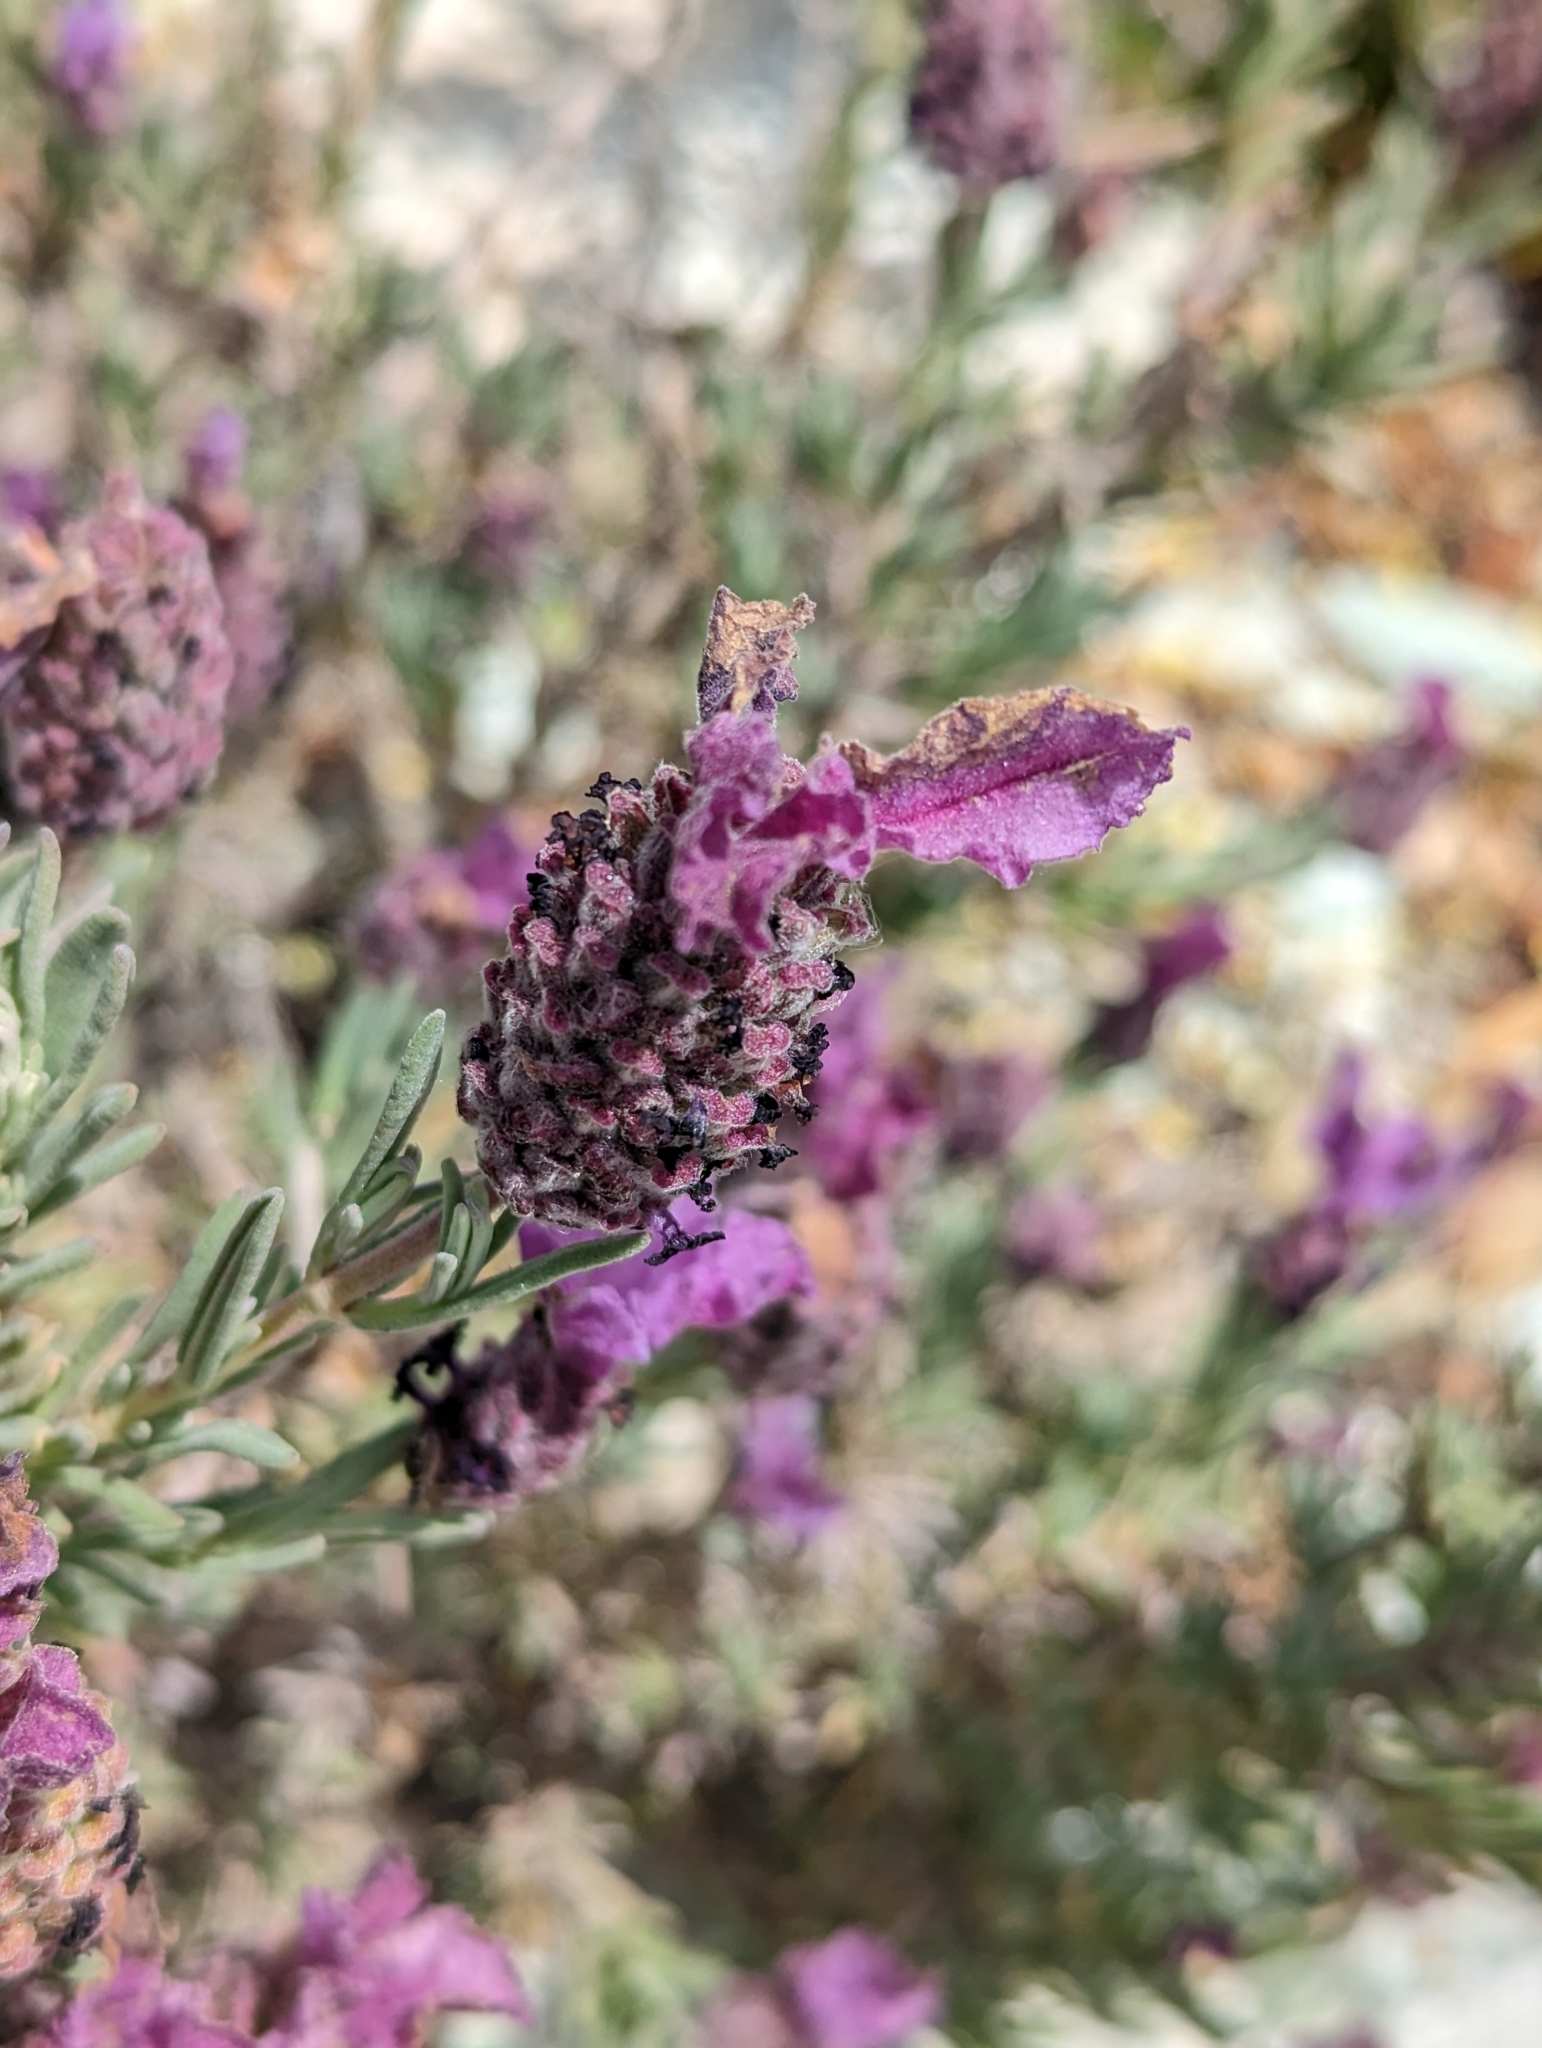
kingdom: Plantae
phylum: Tracheophyta
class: Magnoliopsida
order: Lamiales
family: Lamiaceae
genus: Lavandula
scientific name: Lavandula stoechas
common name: French lavender
